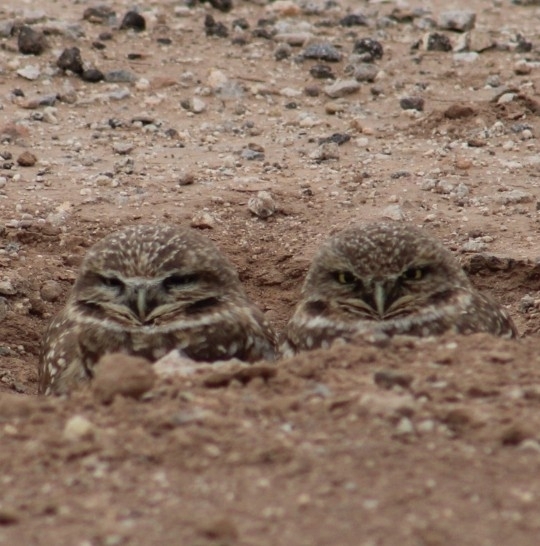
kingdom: Animalia
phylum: Chordata
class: Aves
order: Strigiformes
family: Strigidae
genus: Athene
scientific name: Athene cunicularia
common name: Burrowing owl
